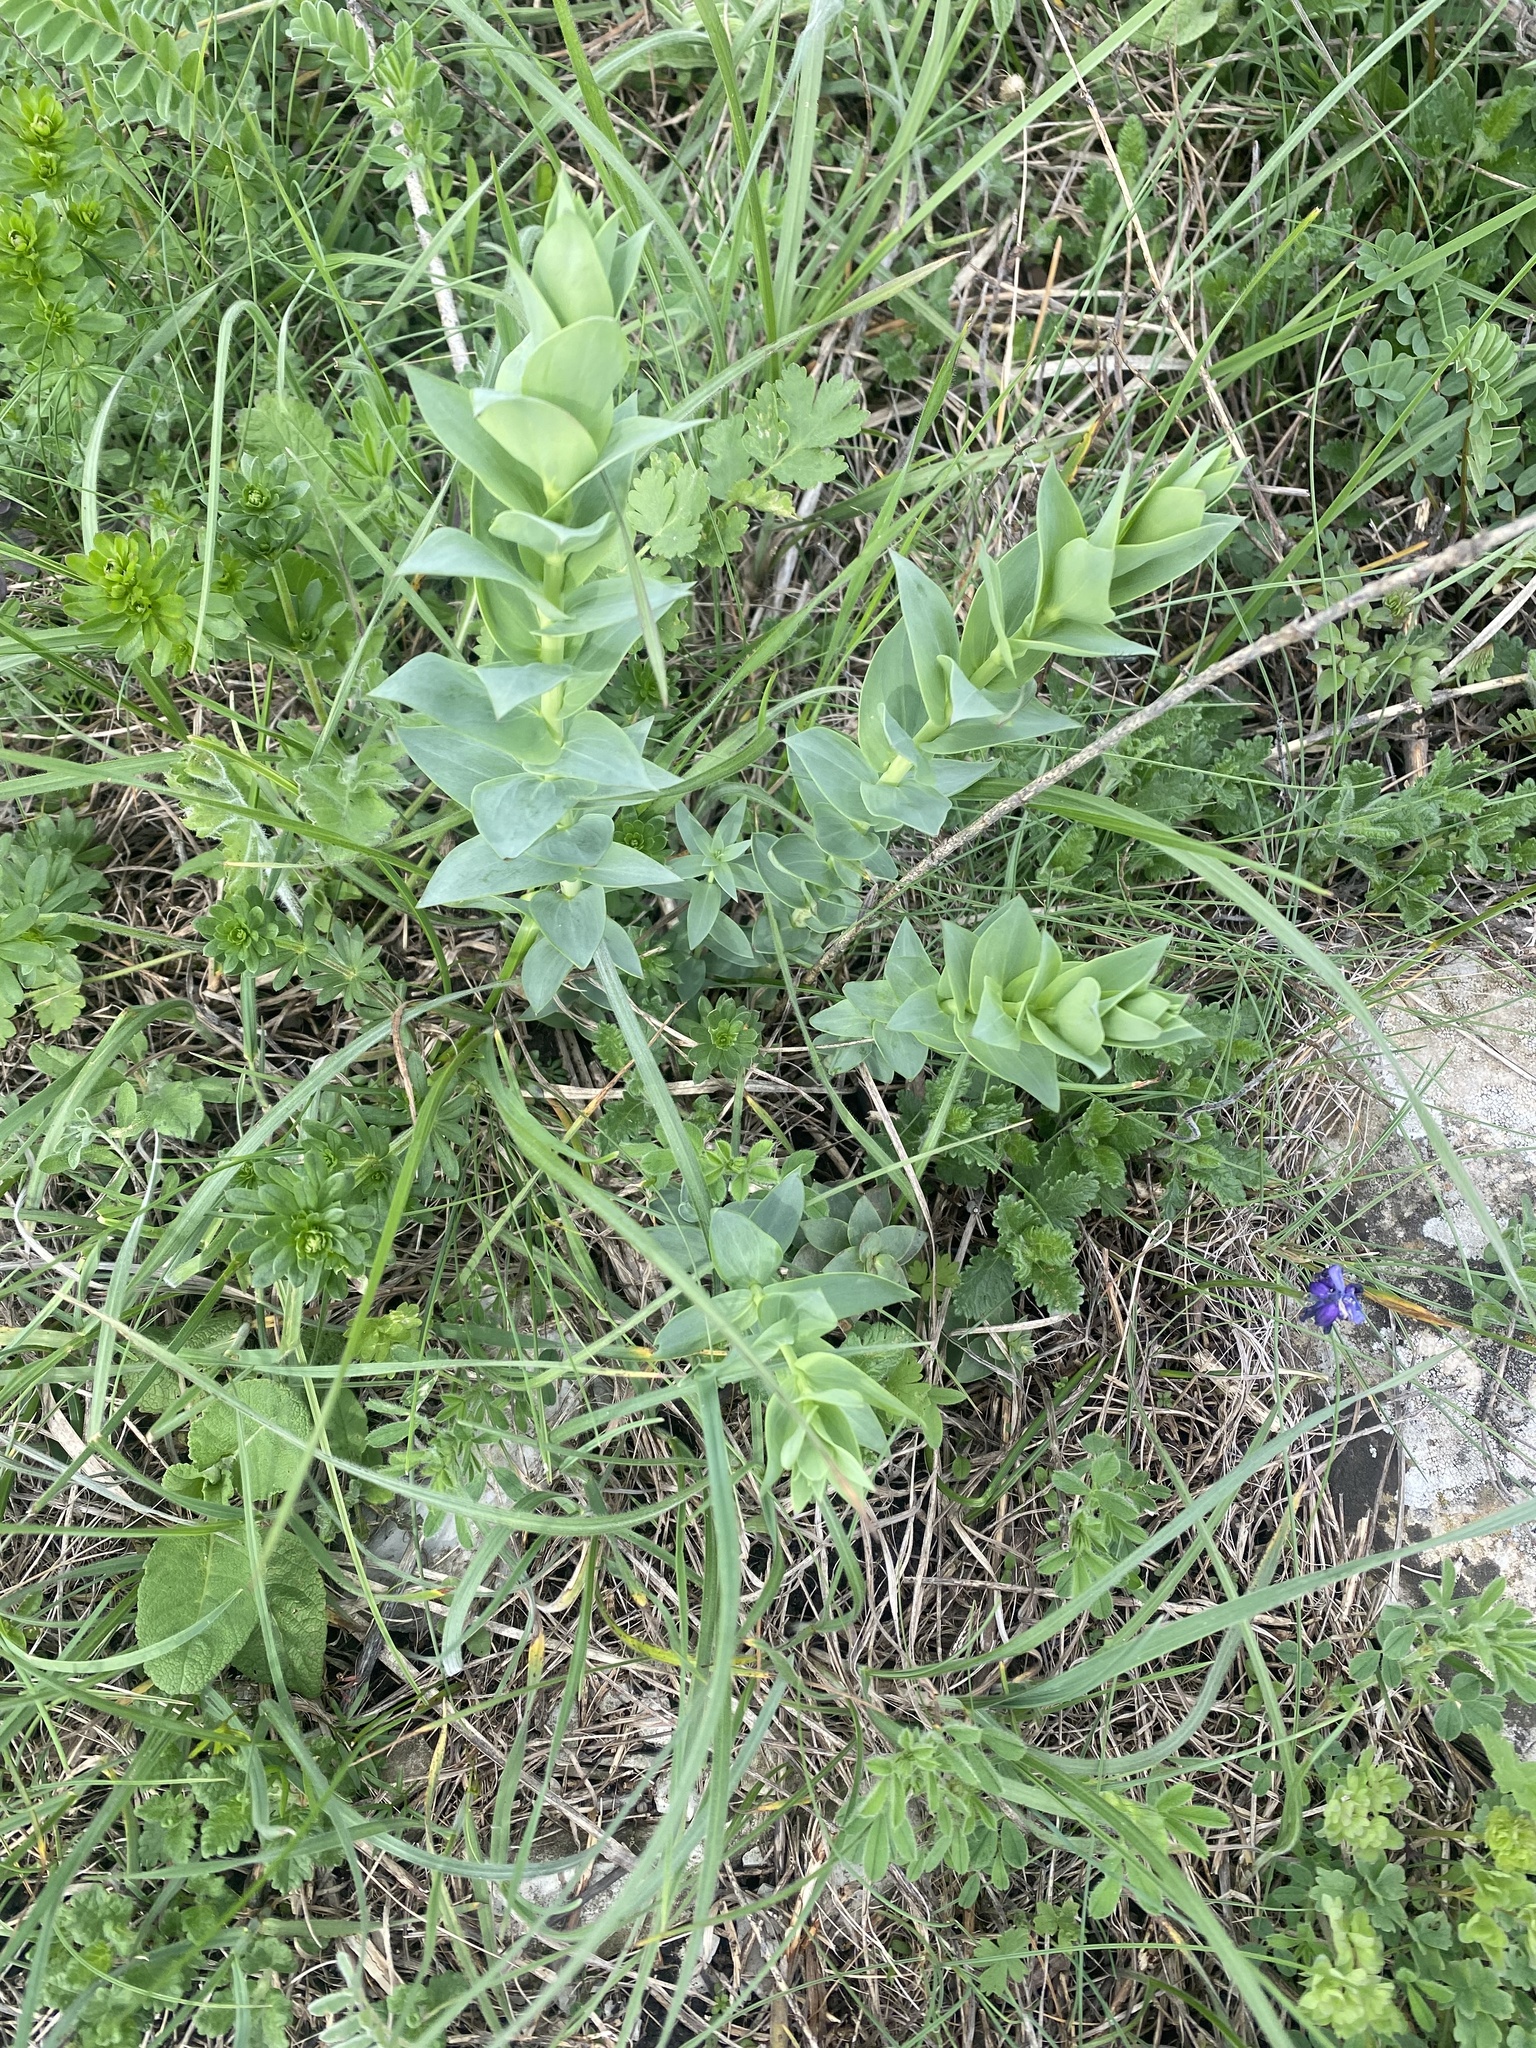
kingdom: Plantae
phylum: Tracheophyta
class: Magnoliopsida
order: Lamiales
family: Plantaginaceae
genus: Linaria
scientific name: Linaria genistifolia
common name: Broomleaf toadflax
